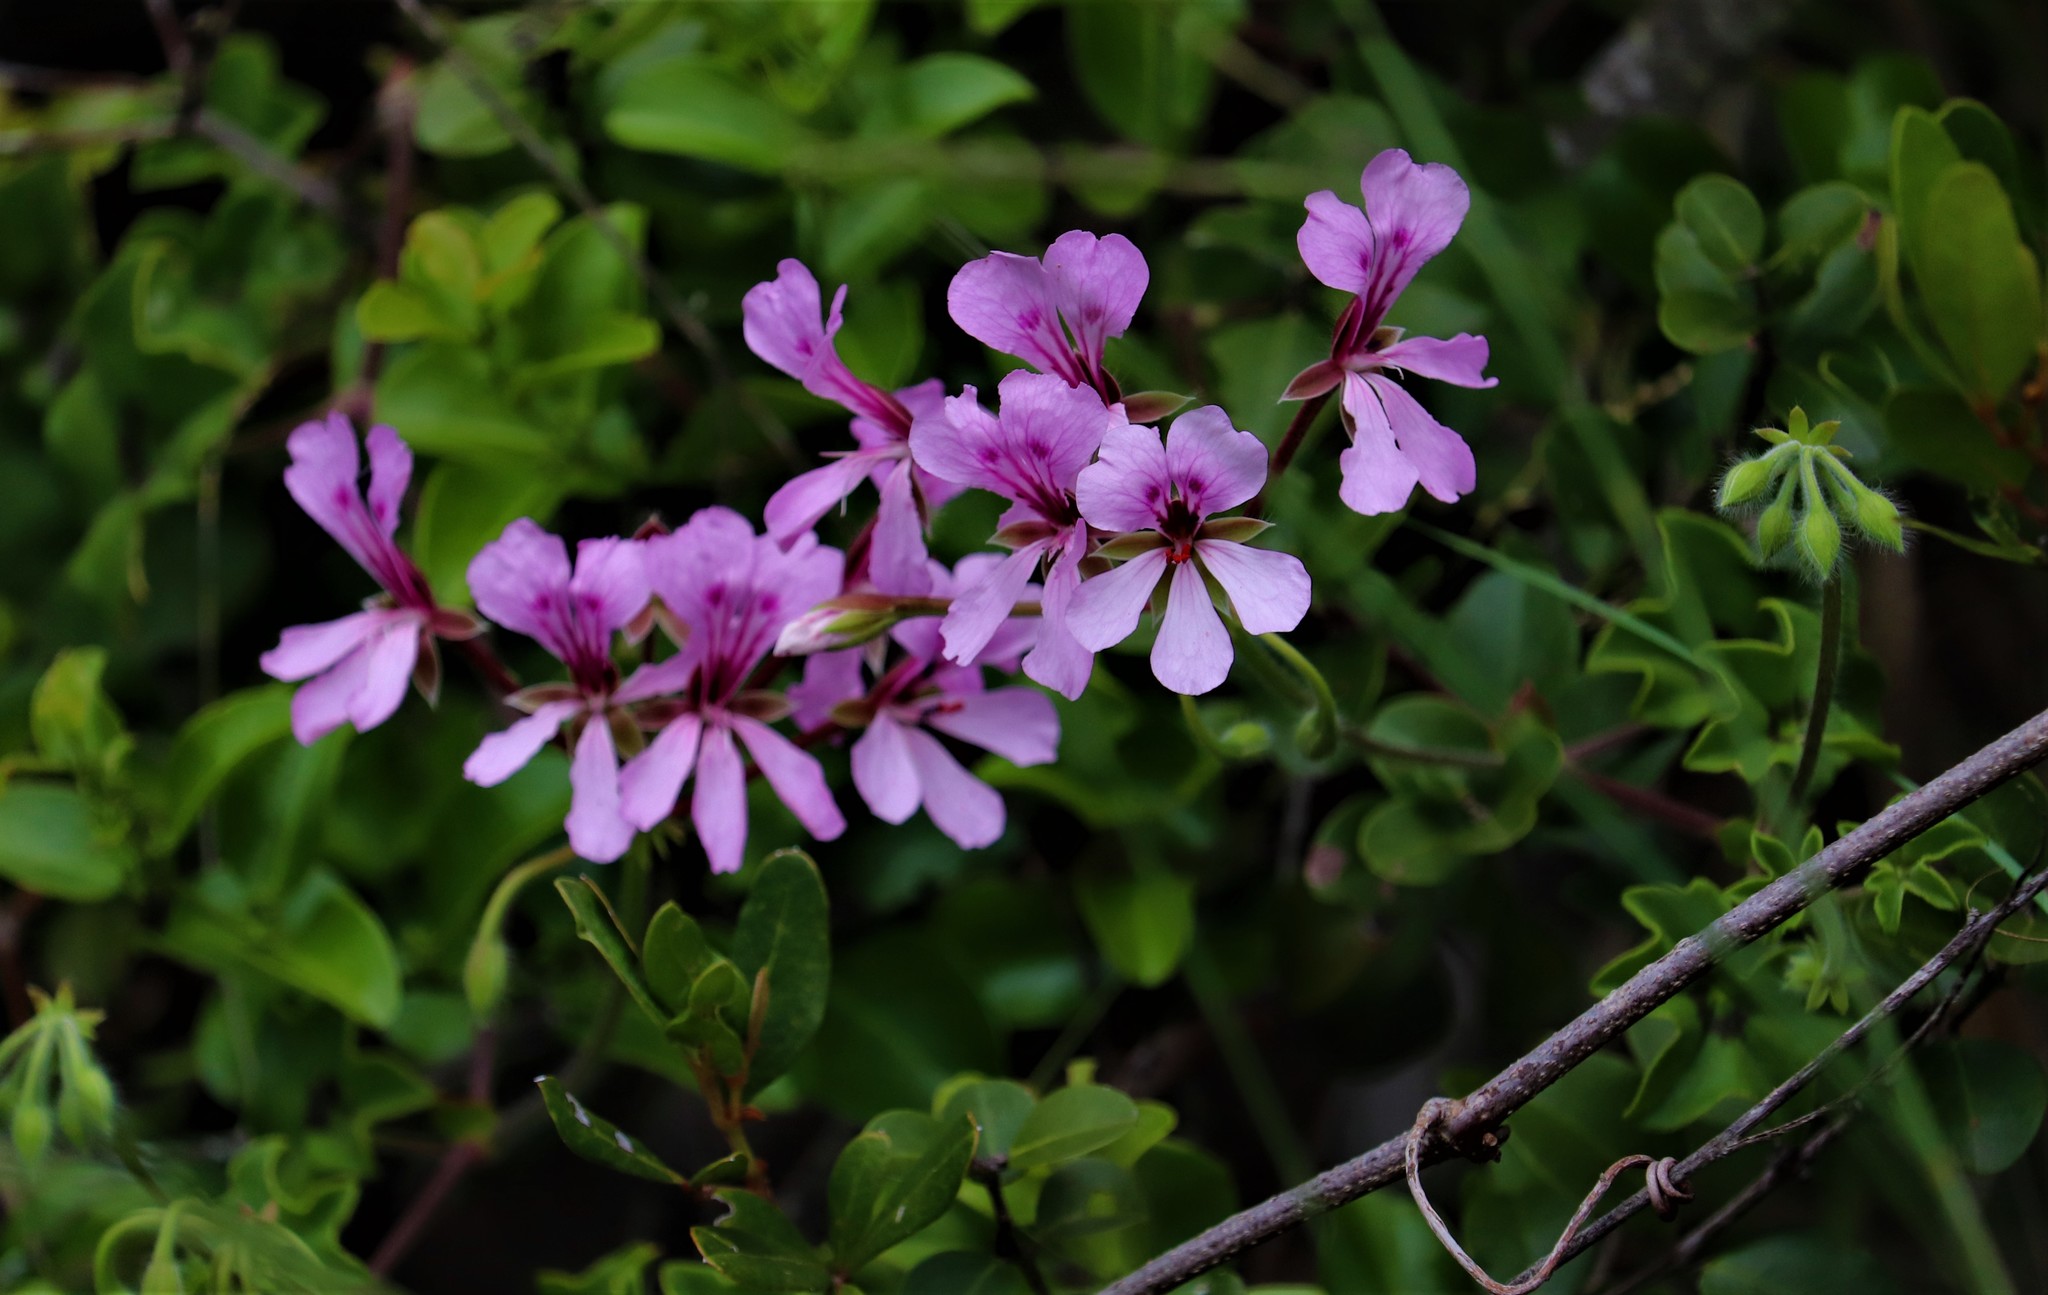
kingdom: Plantae
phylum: Tracheophyta
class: Magnoliopsida
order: Geraniales
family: Geraniaceae
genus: Pelargonium
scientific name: Pelargonium peltatum
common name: Ivyleaf geranium
